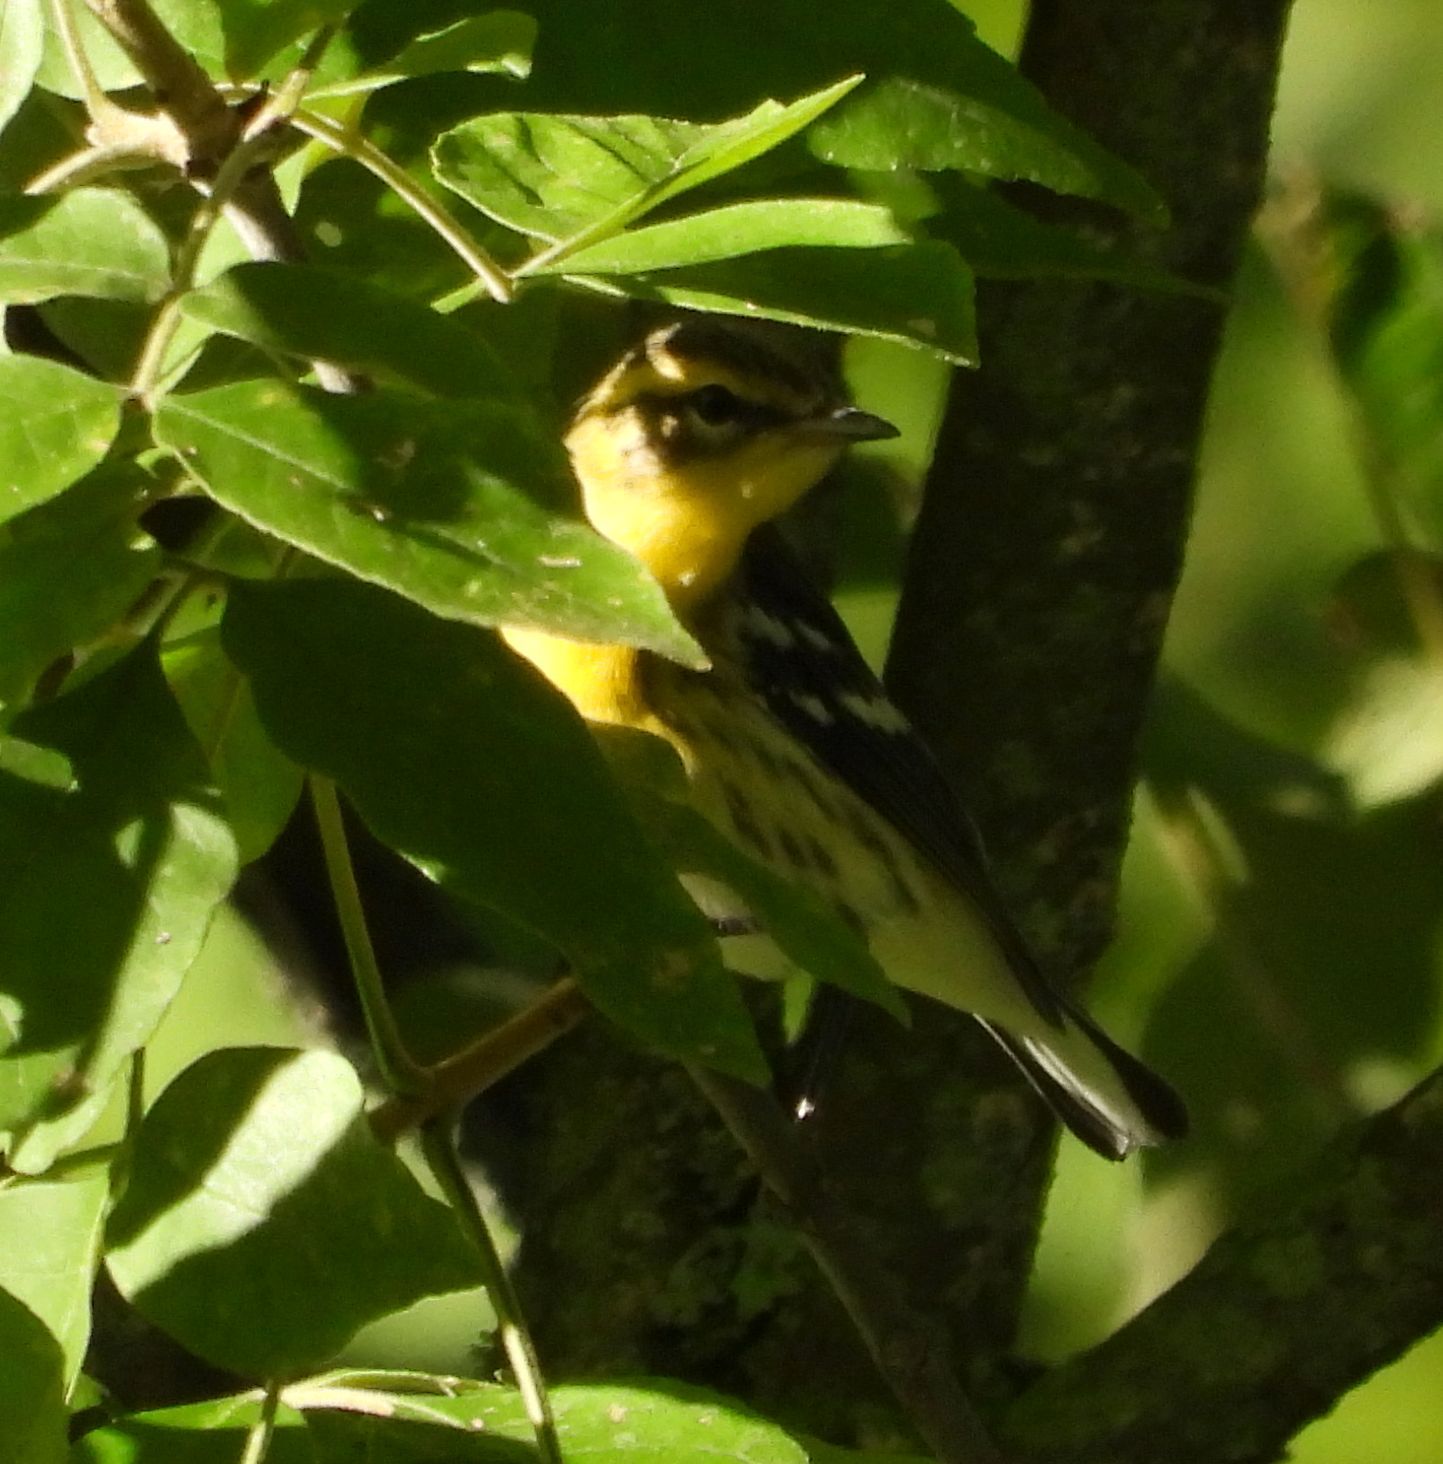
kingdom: Animalia
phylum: Chordata
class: Aves
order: Passeriformes
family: Parulidae
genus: Setophaga
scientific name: Setophaga fusca
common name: Blackburnian warbler
